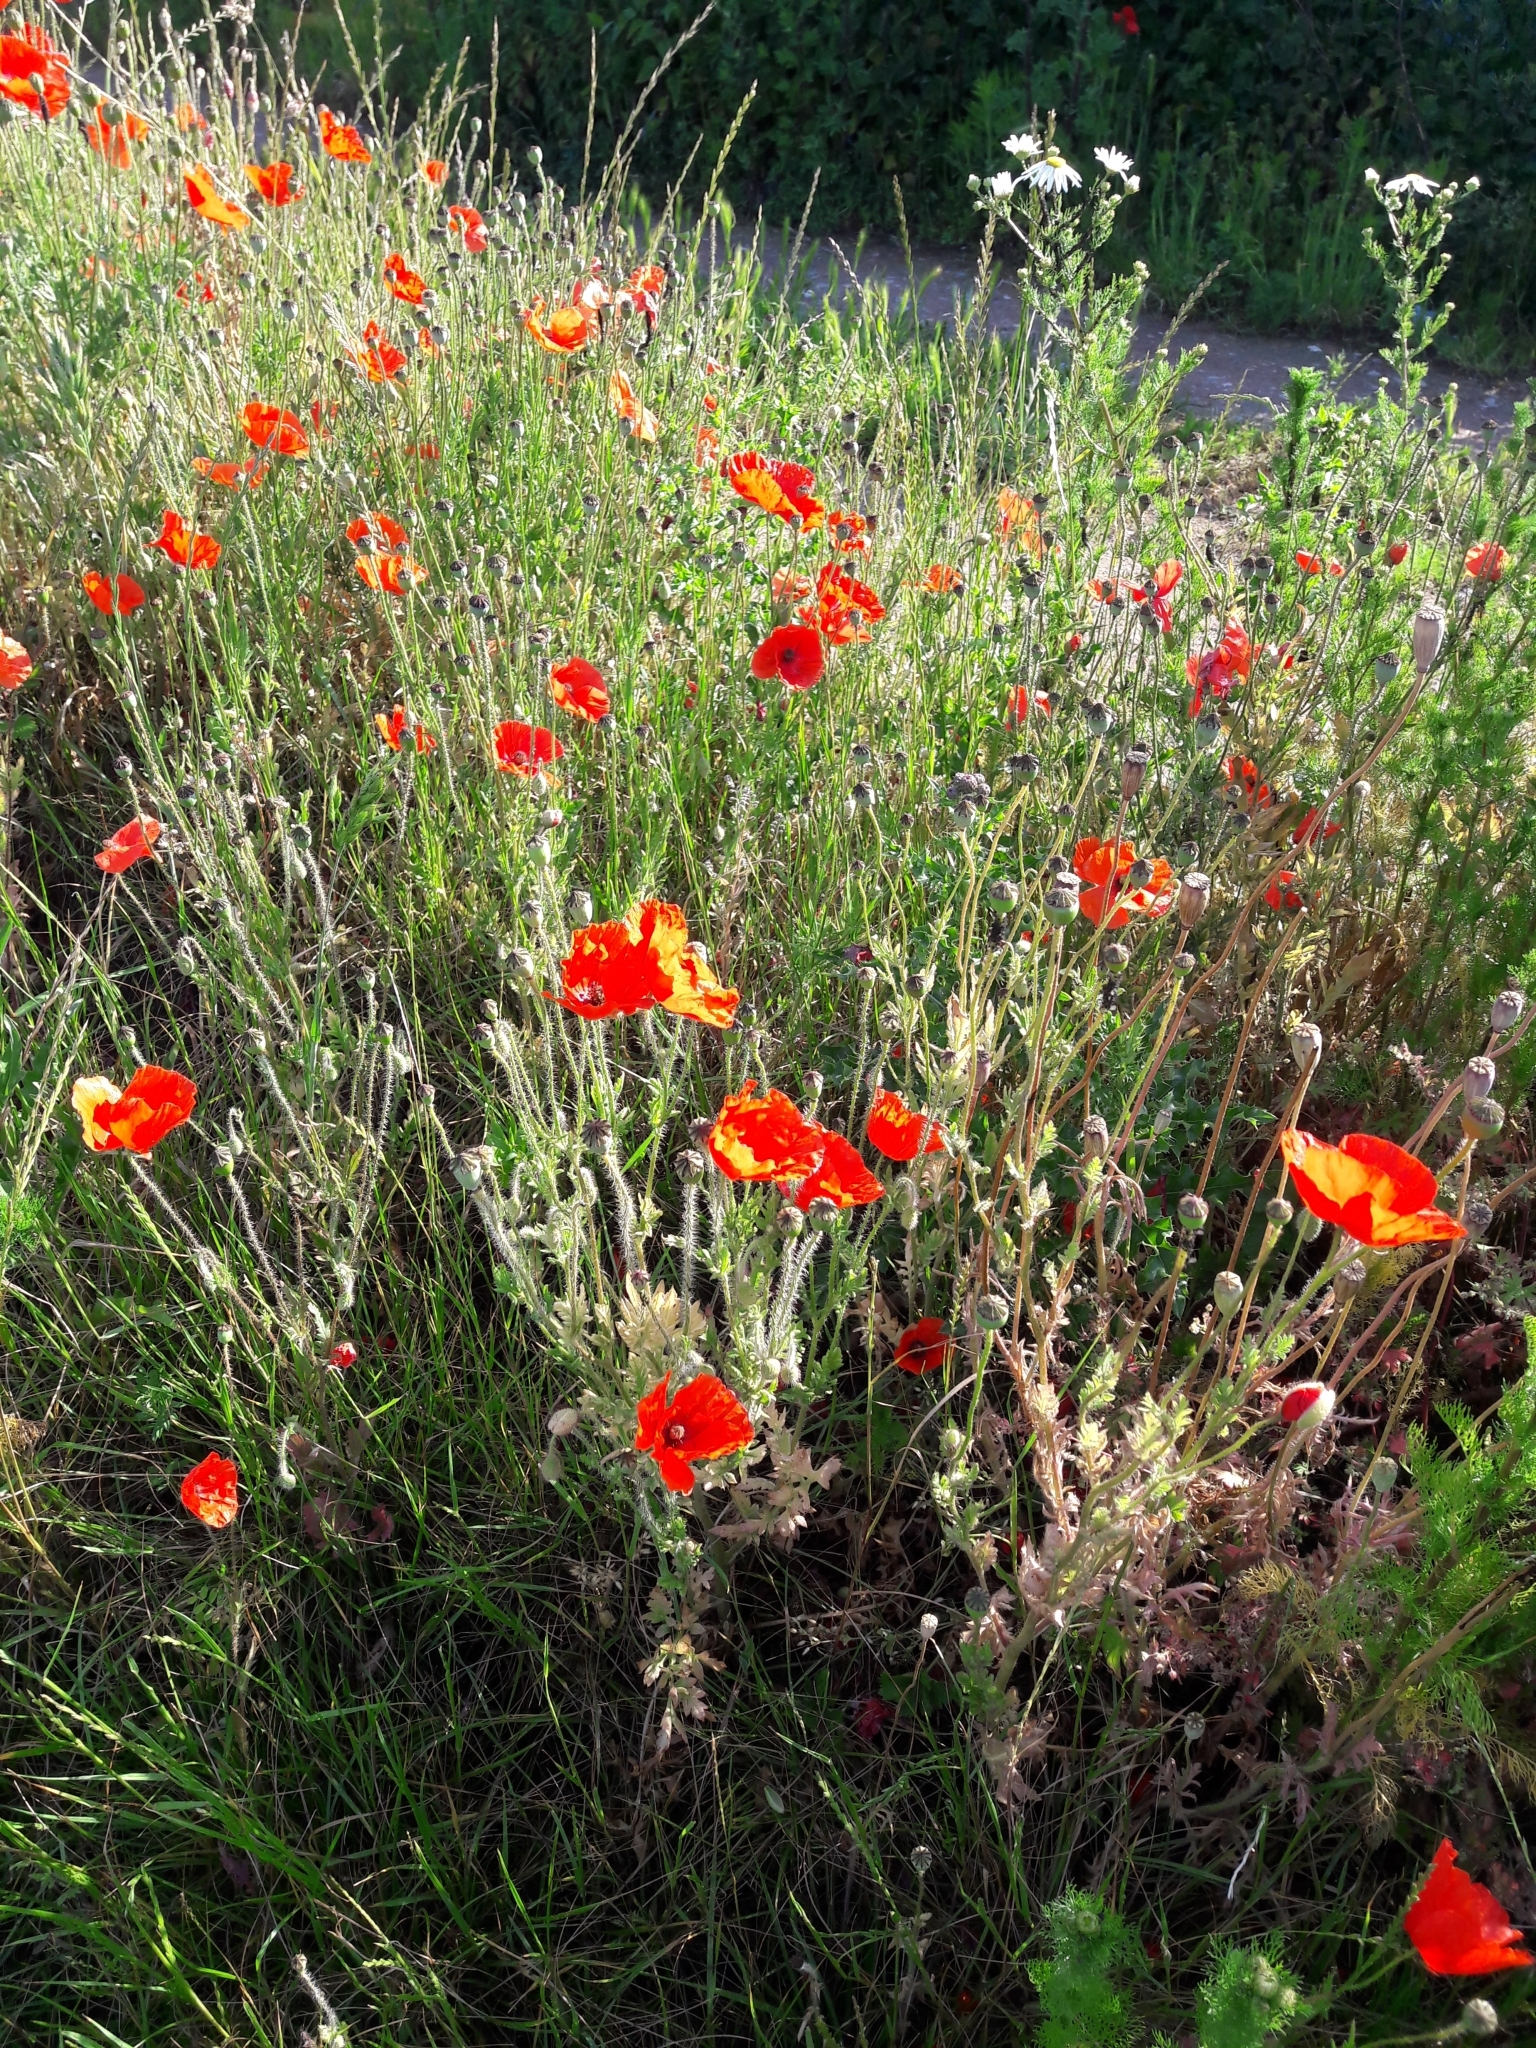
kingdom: Plantae
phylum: Tracheophyta
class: Magnoliopsida
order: Ranunculales
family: Papaveraceae
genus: Papaver
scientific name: Papaver rhoeas
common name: Corn poppy
